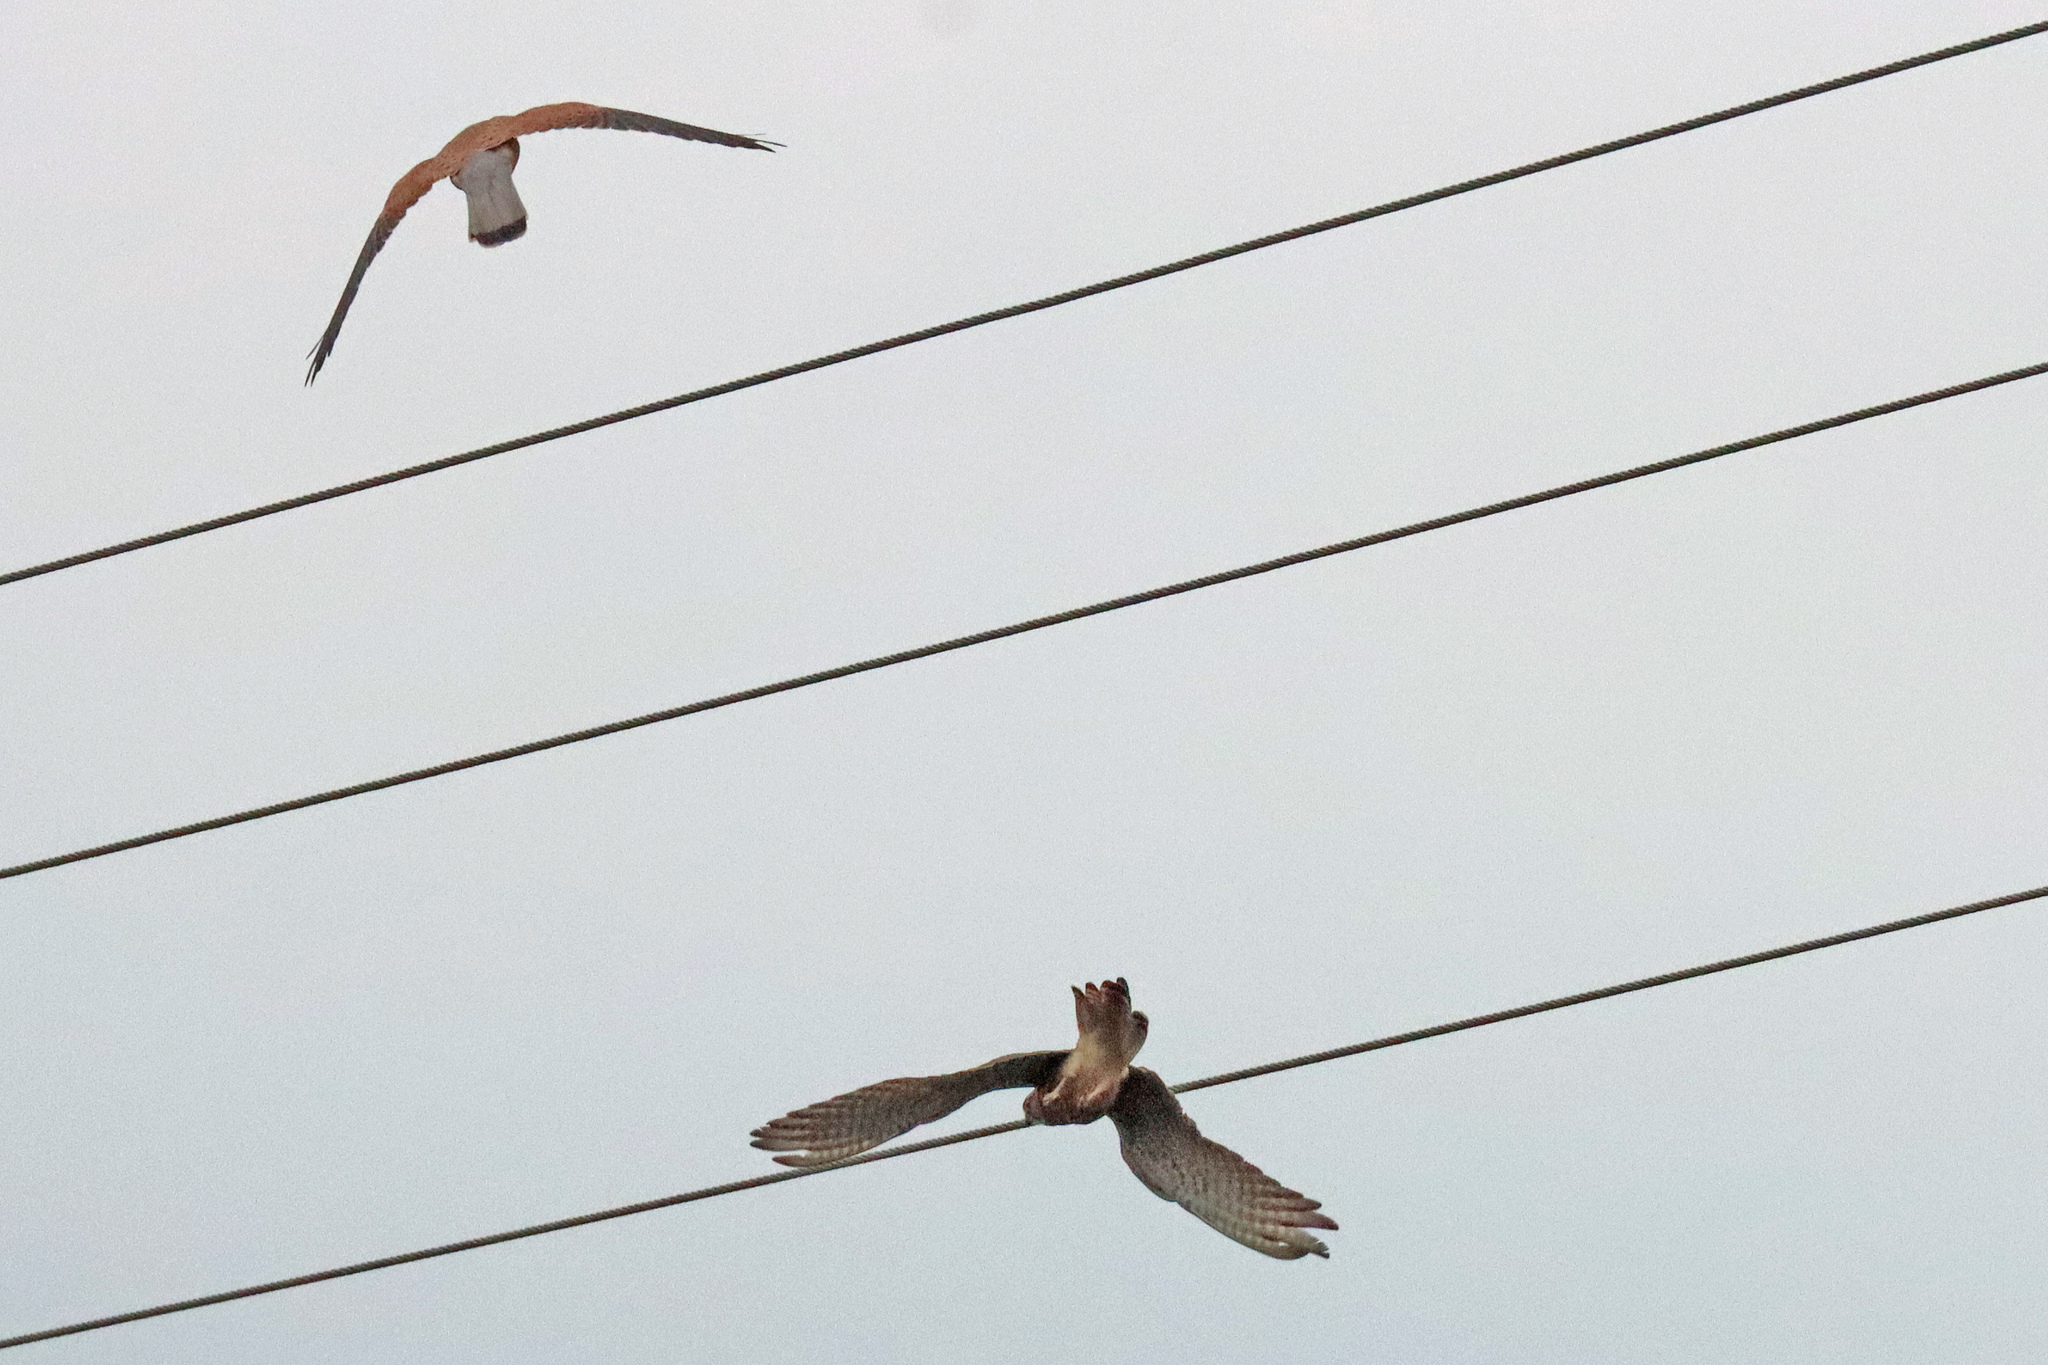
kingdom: Animalia
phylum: Chordata
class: Aves
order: Falconiformes
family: Falconidae
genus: Falco
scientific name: Falco tinnunculus
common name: Common kestrel
